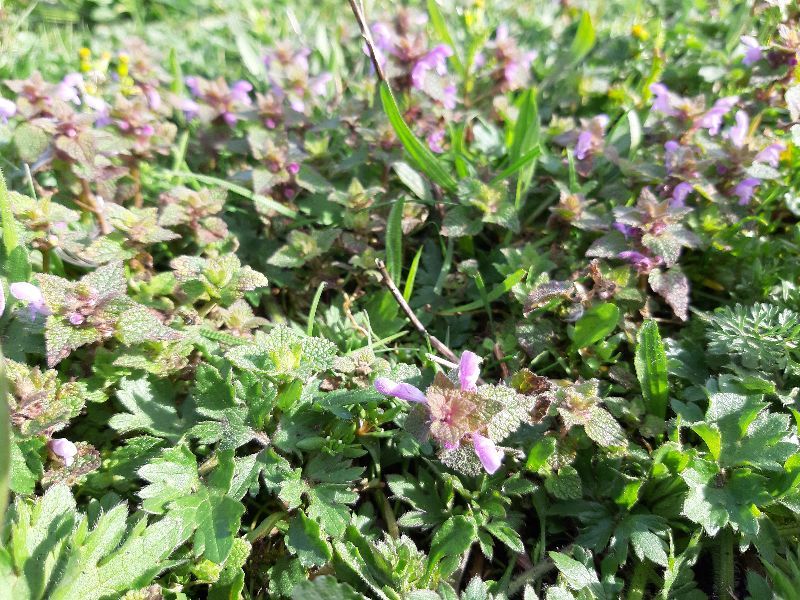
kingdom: Plantae
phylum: Tracheophyta
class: Magnoliopsida
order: Lamiales
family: Lamiaceae
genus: Lamium
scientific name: Lamium purpureum
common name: Red dead-nettle
